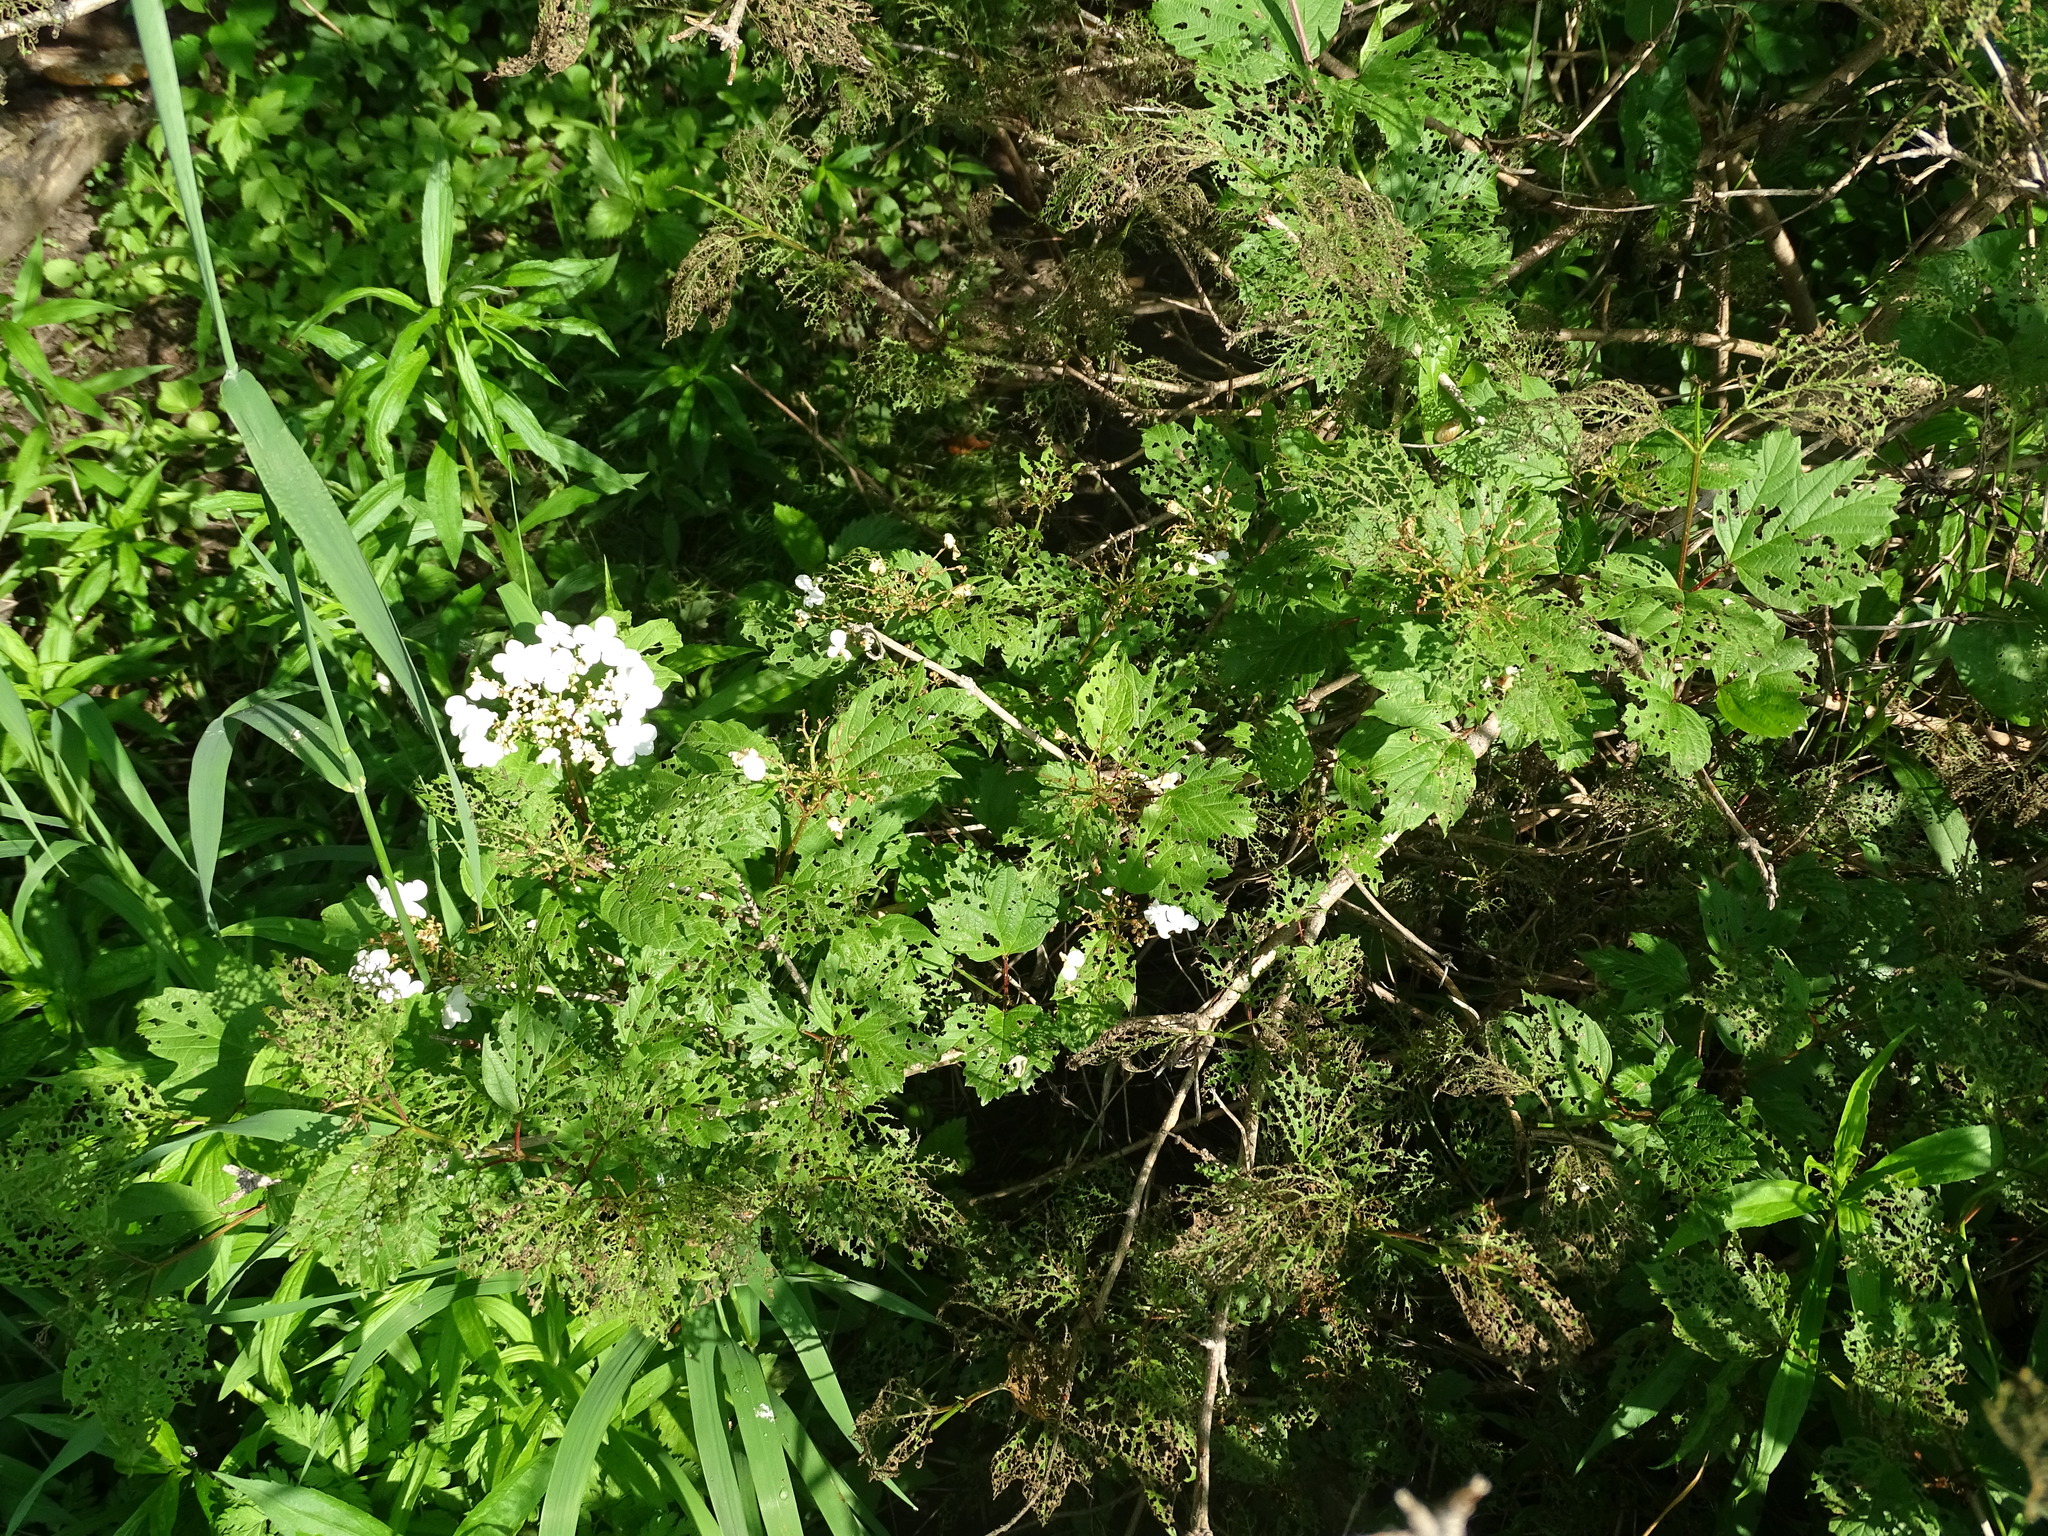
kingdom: Plantae
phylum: Tracheophyta
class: Magnoliopsida
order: Dipsacales
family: Viburnaceae
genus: Viburnum
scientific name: Viburnum opulus
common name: Guelder-rose
